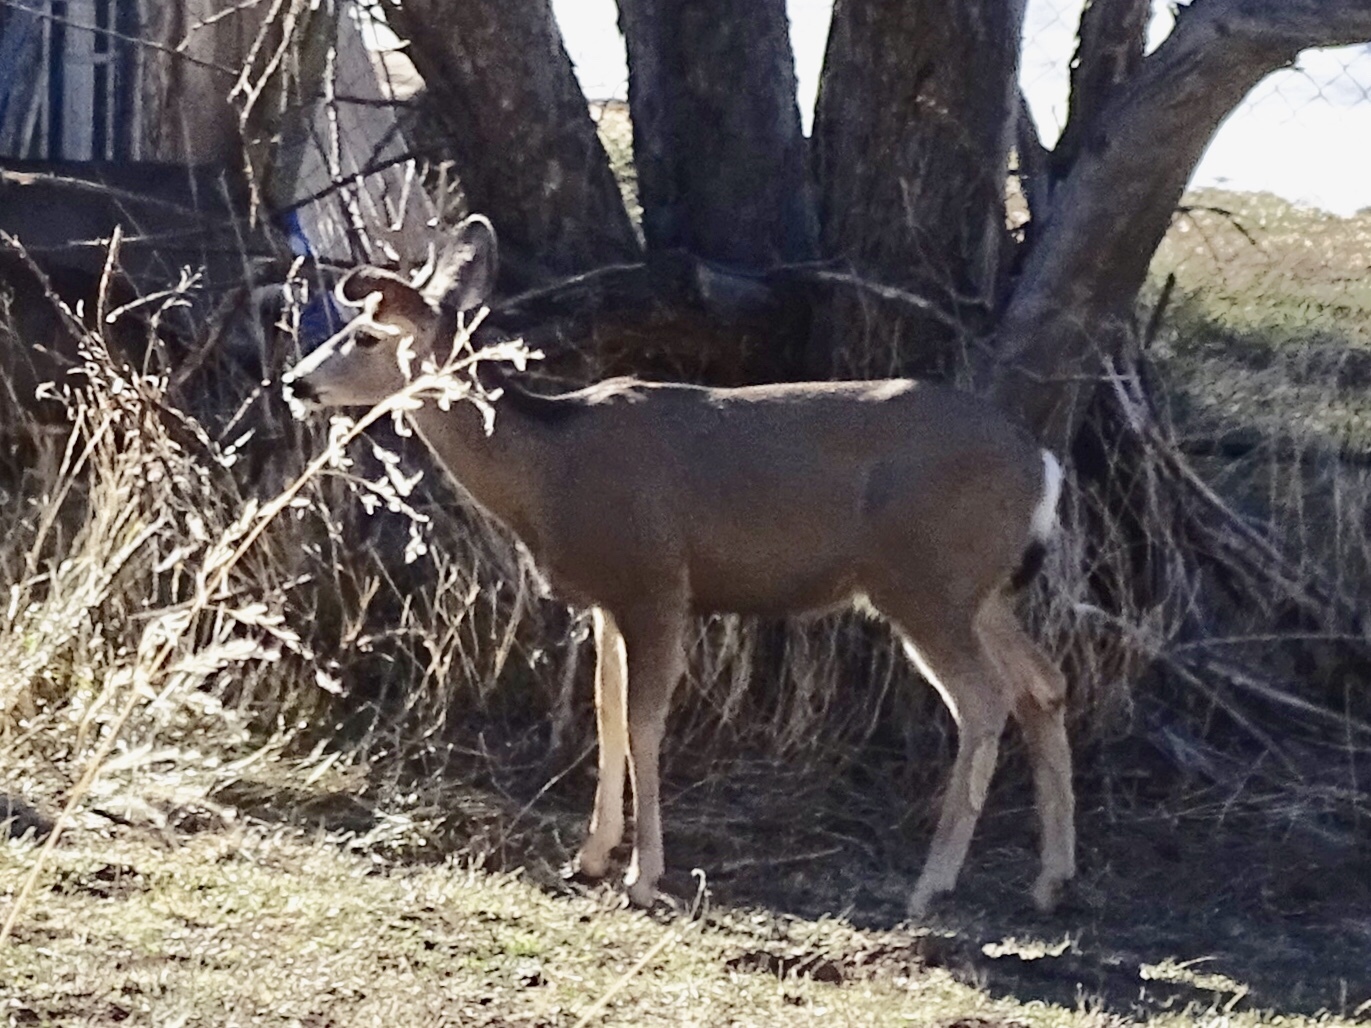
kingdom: Animalia
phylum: Chordata
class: Mammalia
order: Artiodactyla
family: Cervidae
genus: Odocoileus
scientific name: Odocoileus hemionus
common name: Mule deer
